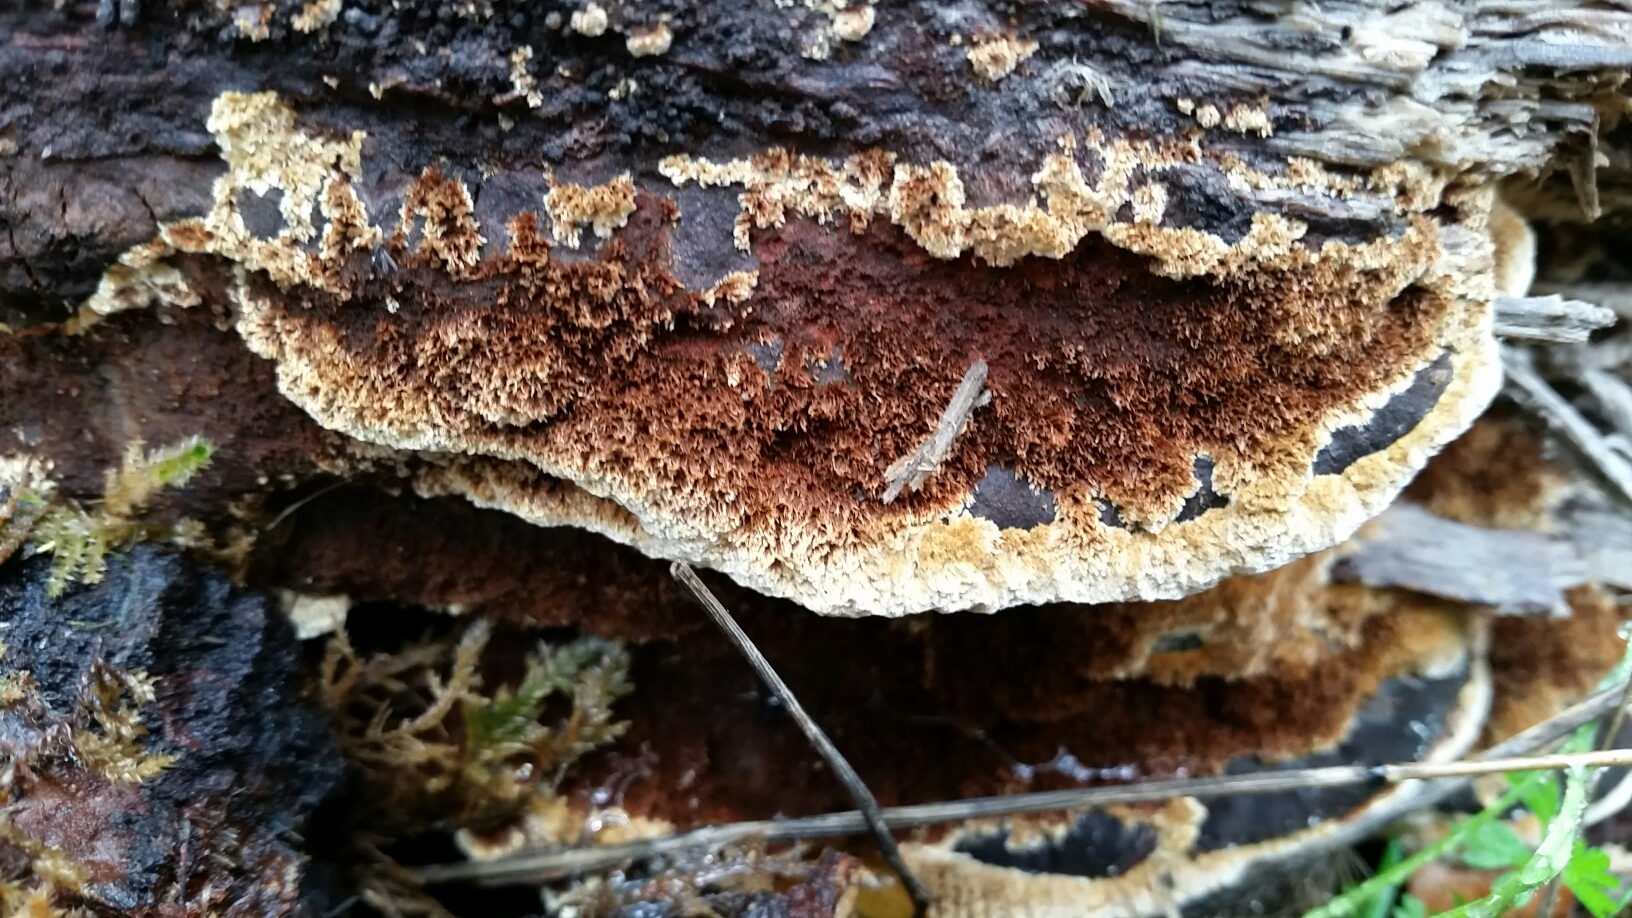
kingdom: Fungi
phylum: Basidiomycota
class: Agaricomycetes
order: Hymenochaetales
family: Hymenochaetaceae
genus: Phellinus
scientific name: Phellinus gilvus
